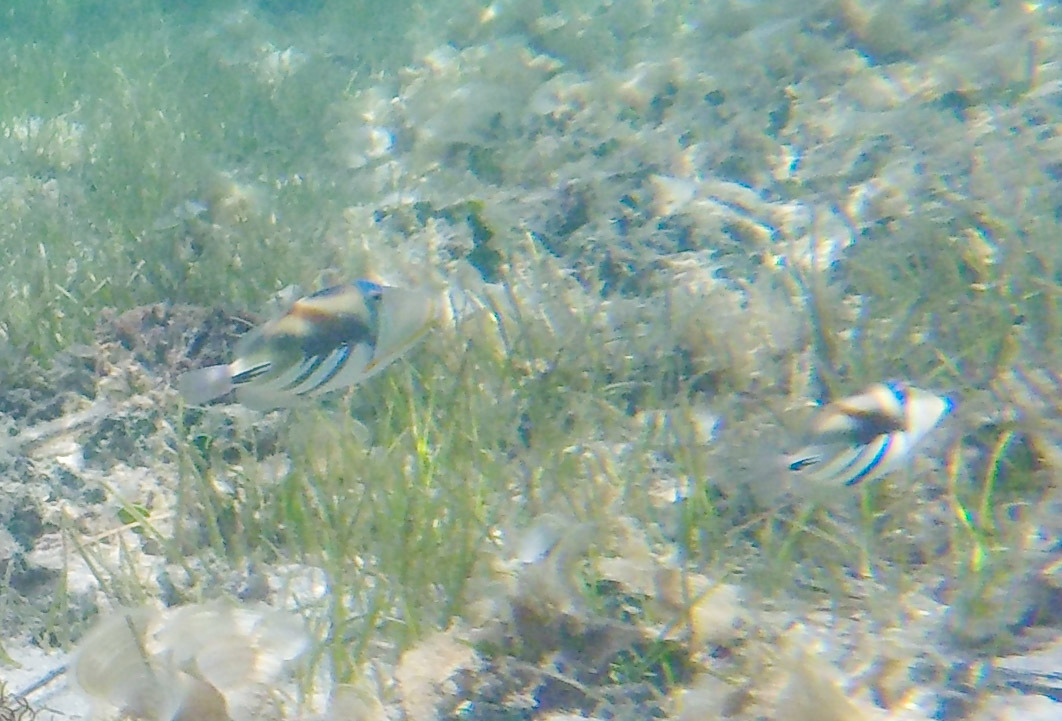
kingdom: Animalia
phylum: Chordata
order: Tetraodontiformes
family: Balistidae
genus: Rhinecanthus
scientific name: Rhinecanthus aculeatus
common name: White-banded triggerfish
